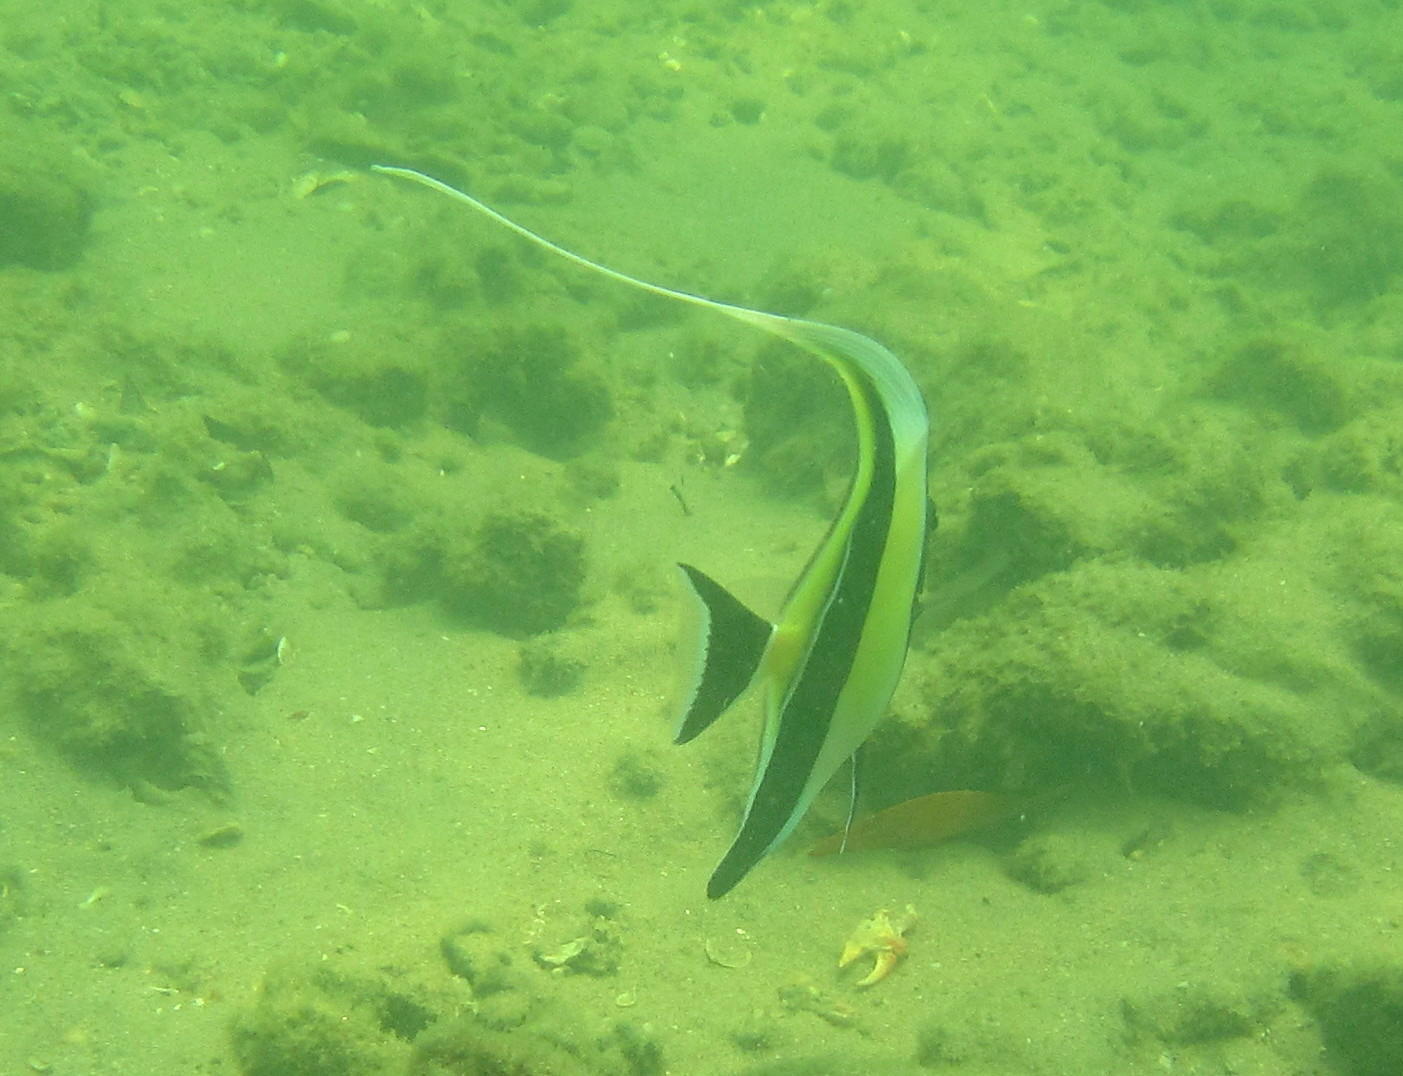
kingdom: Animalia
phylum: Chordata
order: Perciformes
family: Zanclidae
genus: Zanclus
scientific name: Zanclus cornutus
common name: Moorish idol
